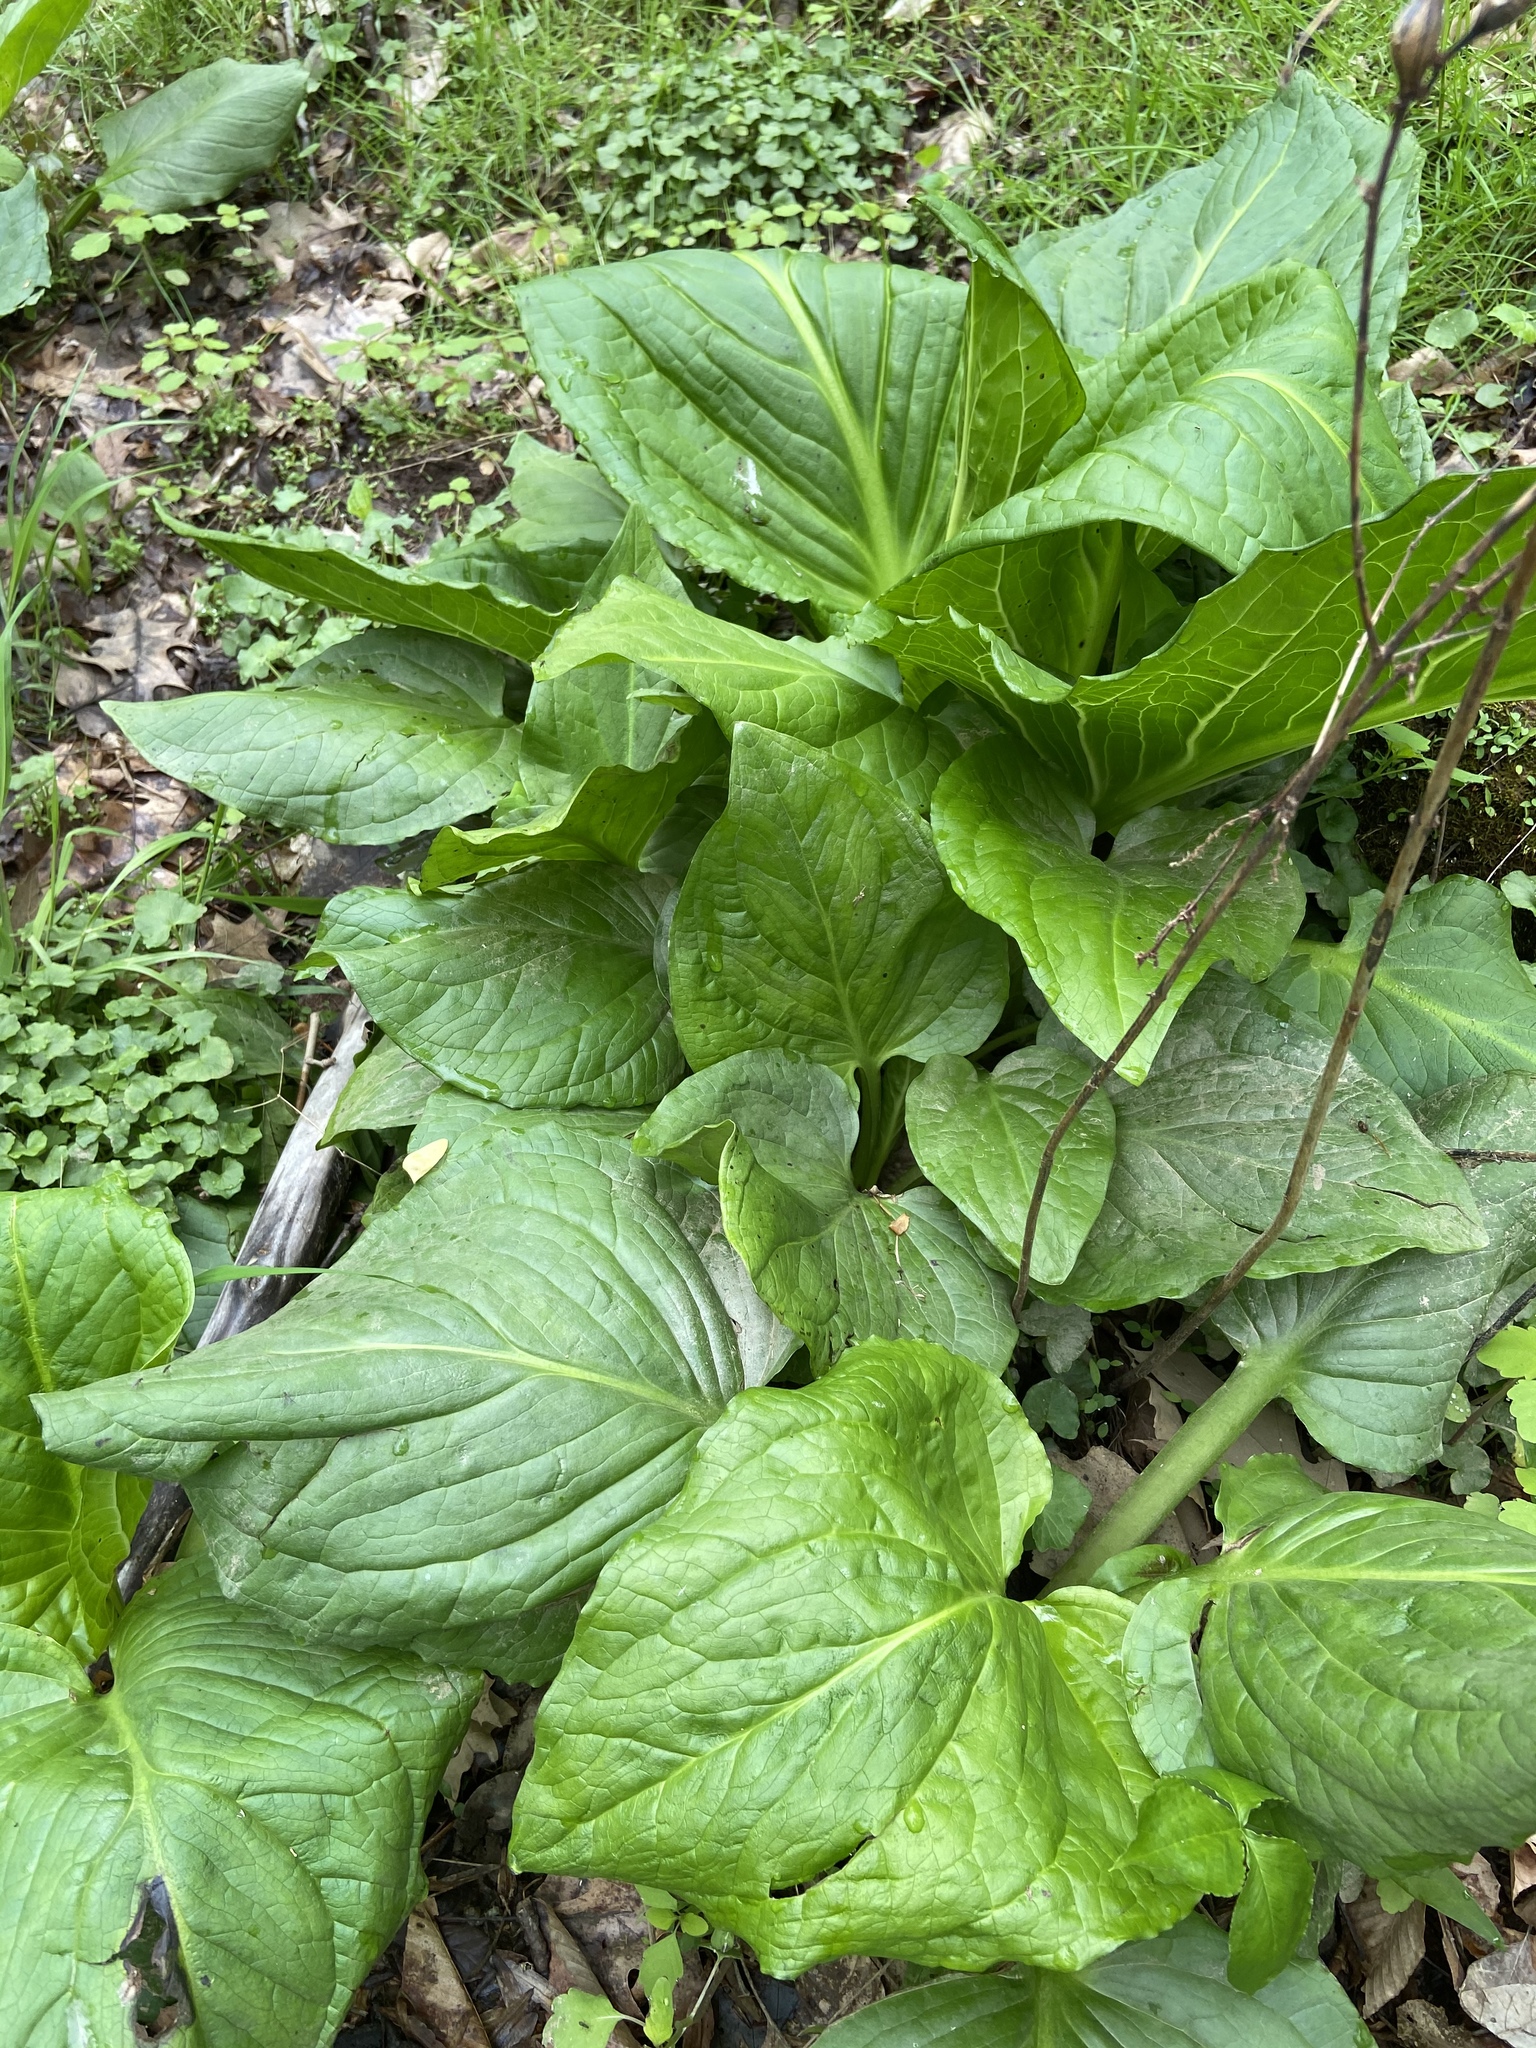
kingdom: Plantae
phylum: Tracheophyta
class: Liliopsida
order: Alismatales
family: Araceae
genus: Symplocarpus
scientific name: Symplocarpus foetidus
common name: Eastern skunk cabbage
